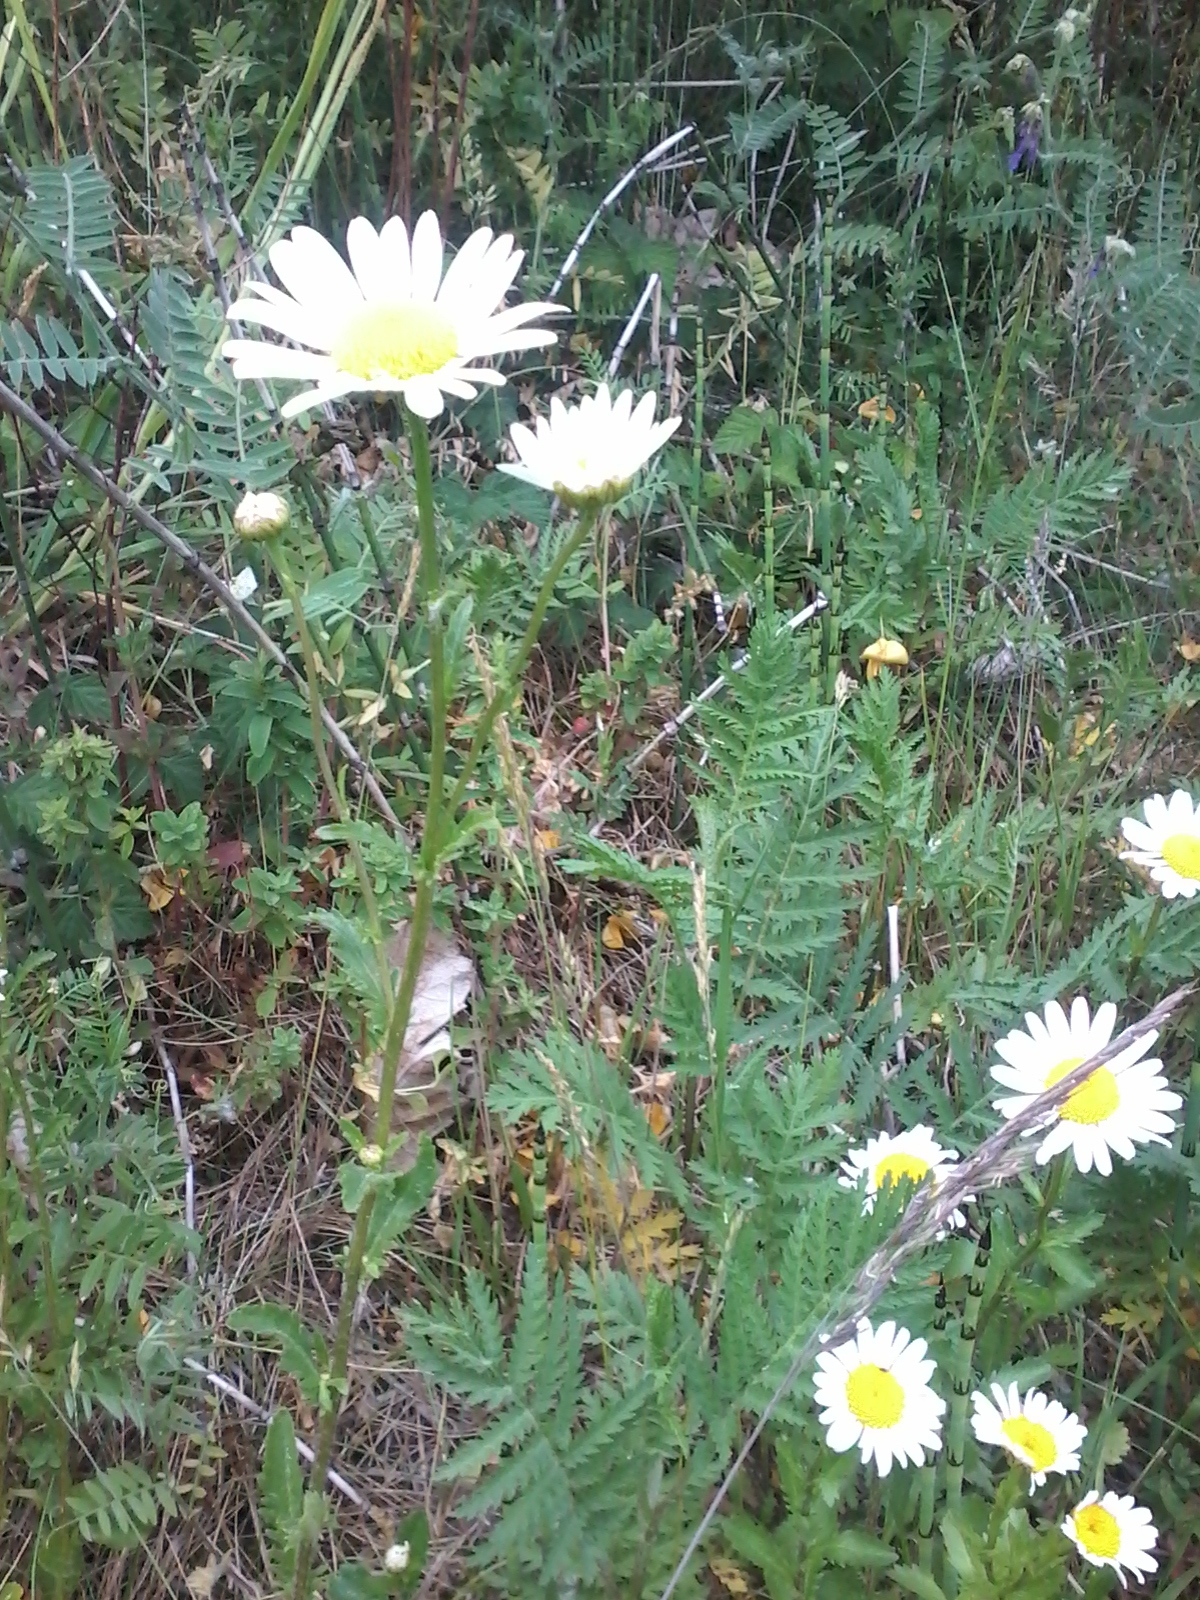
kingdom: Plantae
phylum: Tracheophyta
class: Magnoliopsida
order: Asterales
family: Asteraceae
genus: Leucanthemum
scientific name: Leucanthemum vulgare
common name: Oxeye daisy
